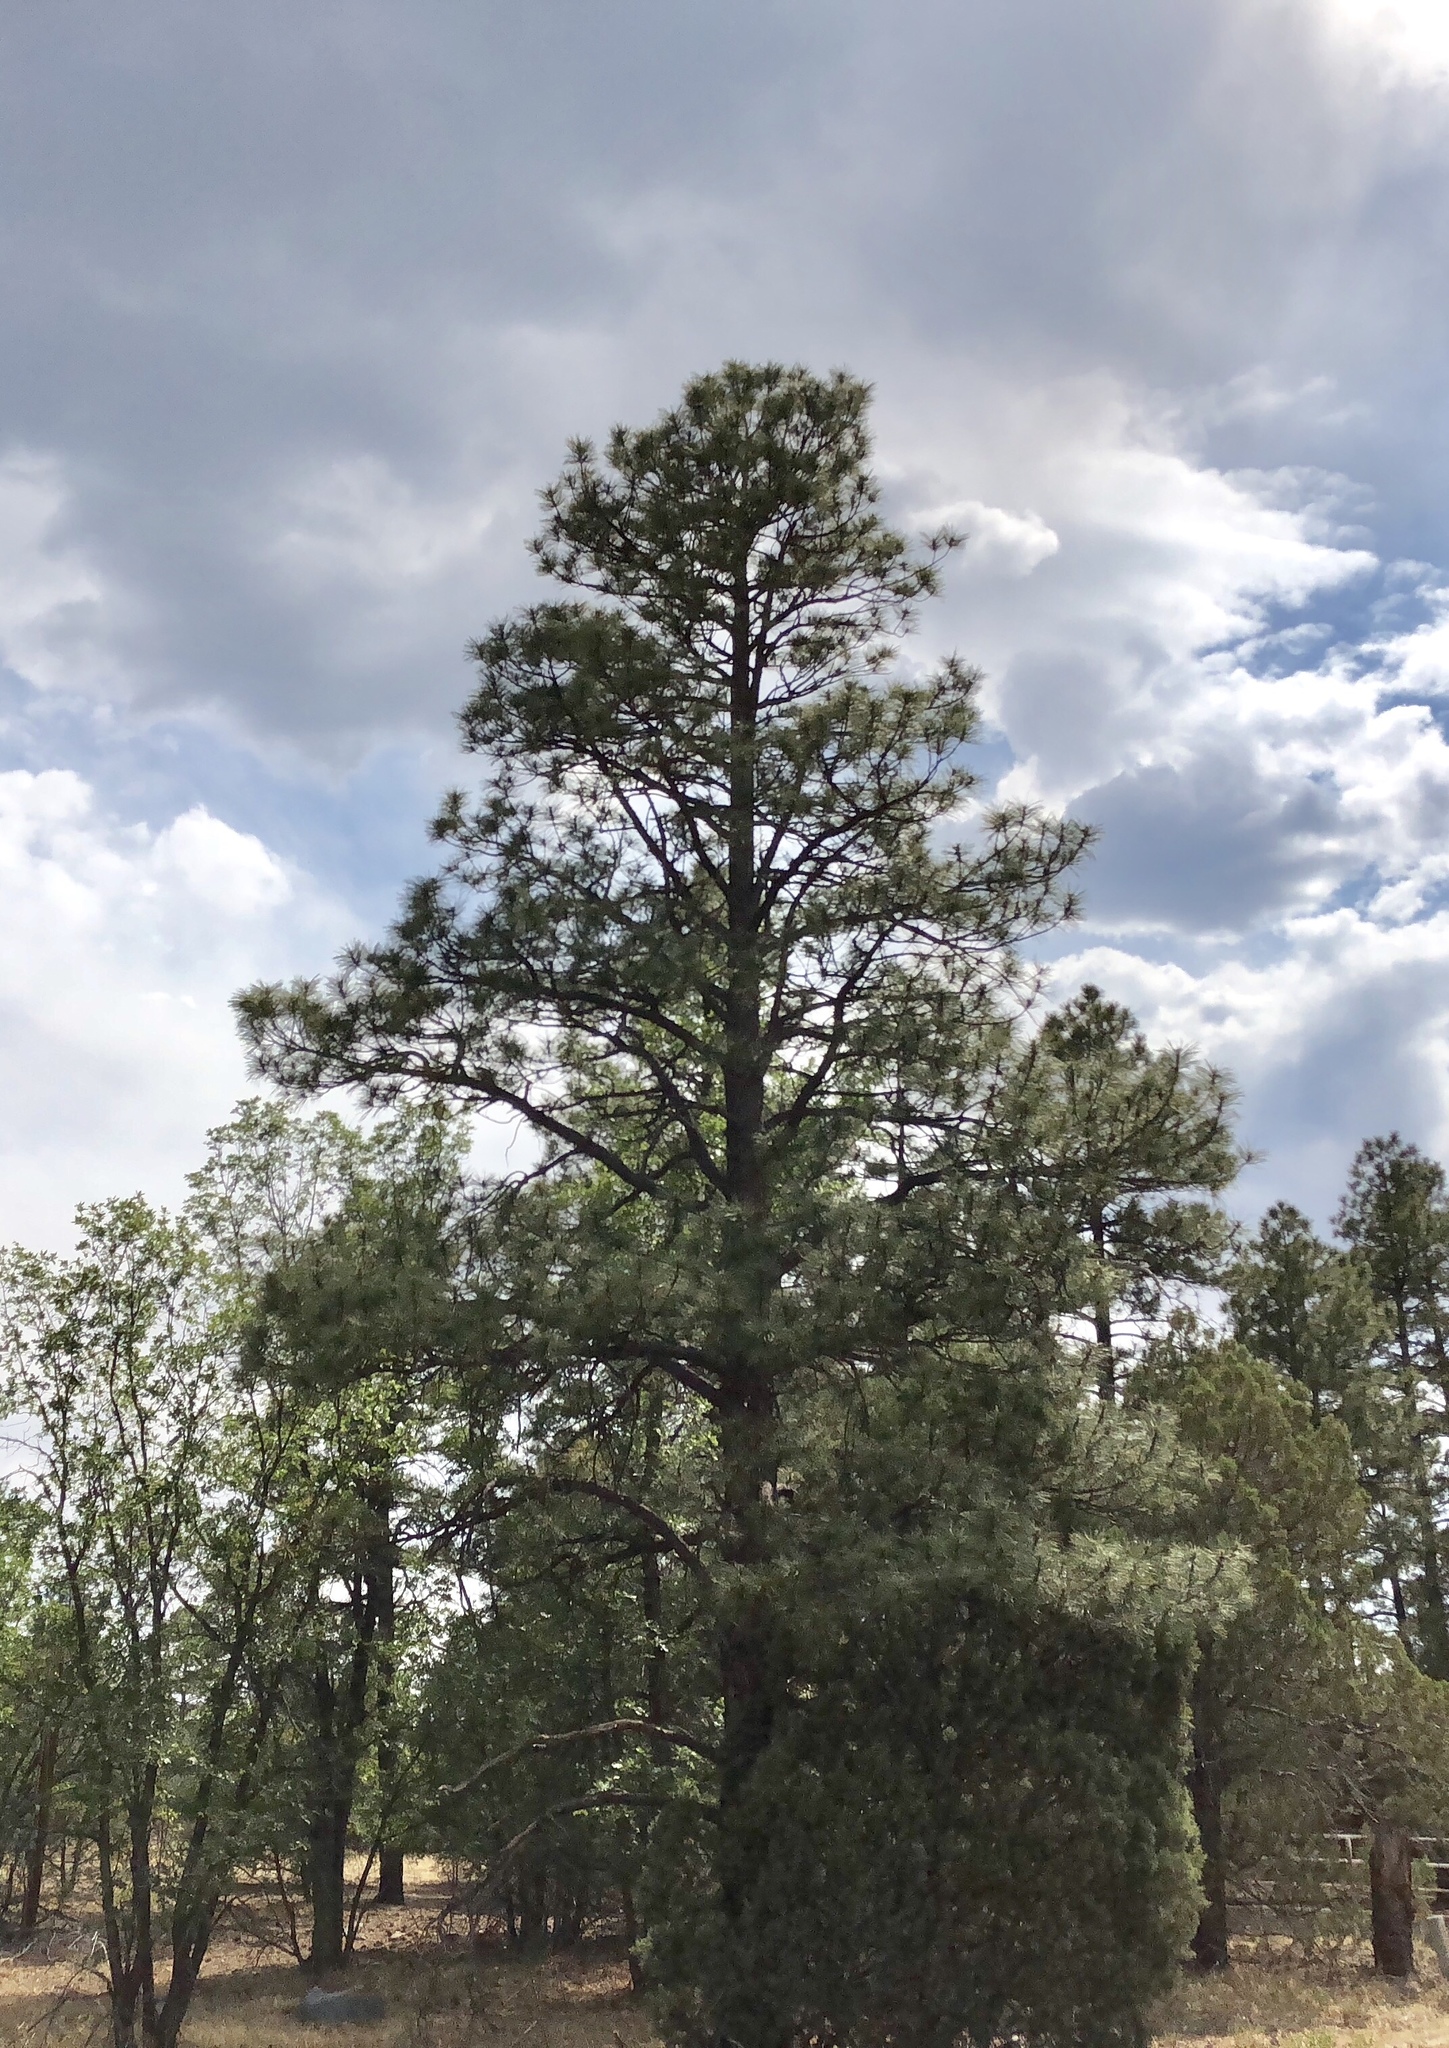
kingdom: Plantae
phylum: Tracheophyta
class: Pinopsida
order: Pinales
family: Pinaceae
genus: Pinus
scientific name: Pinus ponderosa
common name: Western yellow-pine
